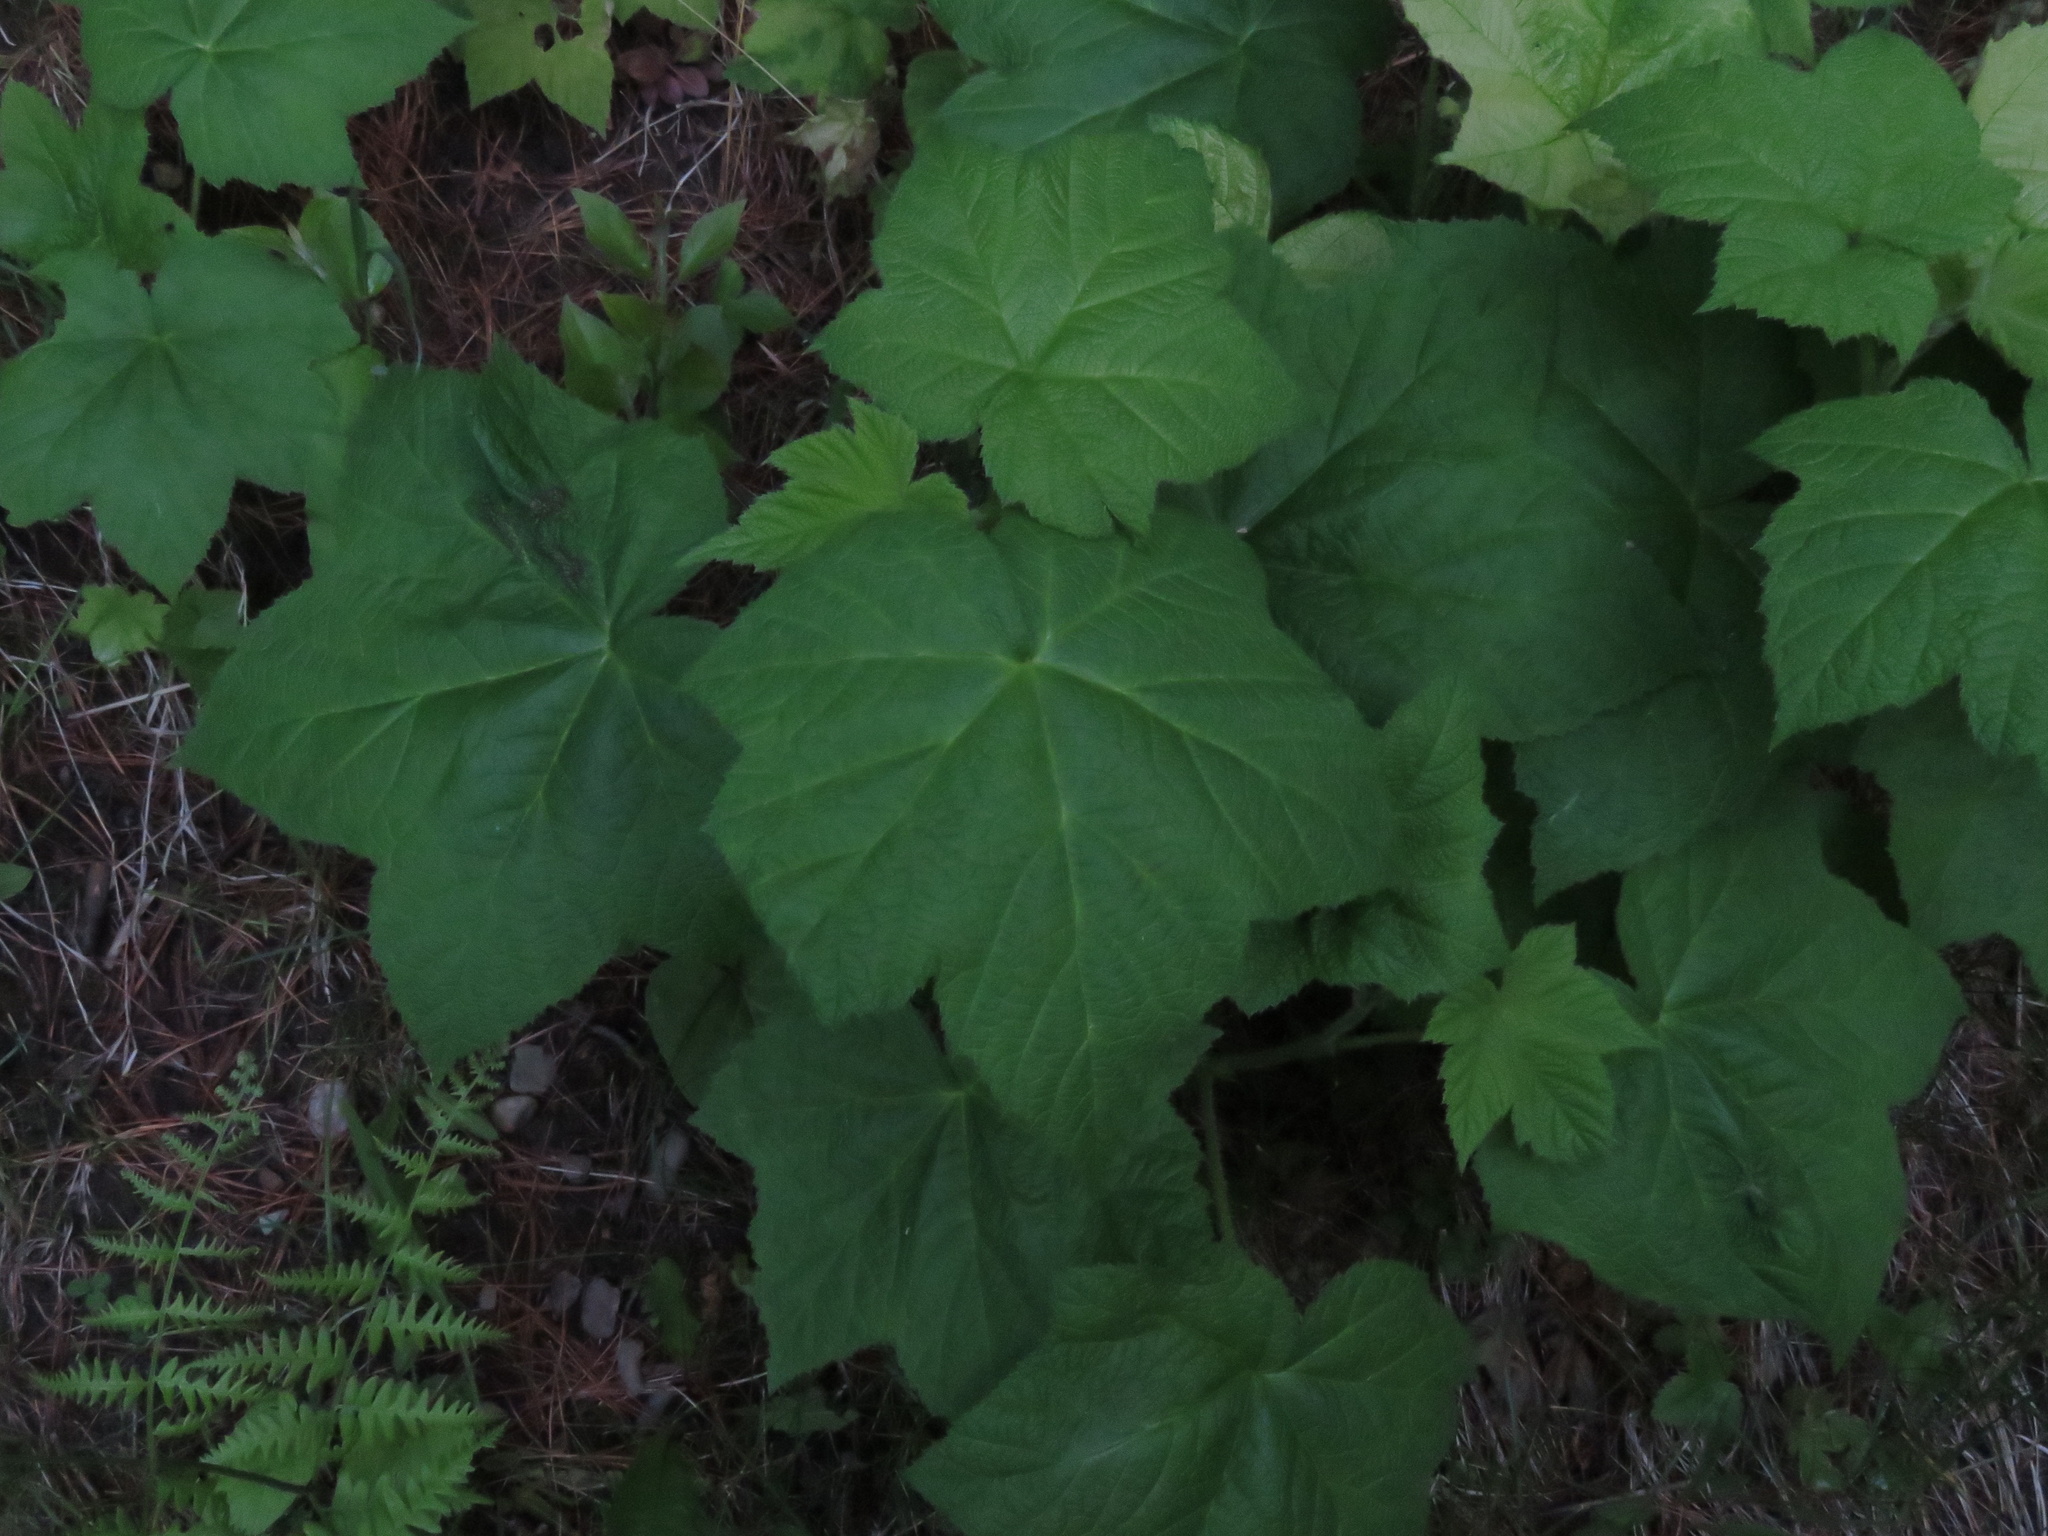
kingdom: Plantae
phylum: Tracheophyta
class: Magnoliopsida
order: Rosales
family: Rosaceae
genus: Rubus
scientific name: Rubus parviflorus
